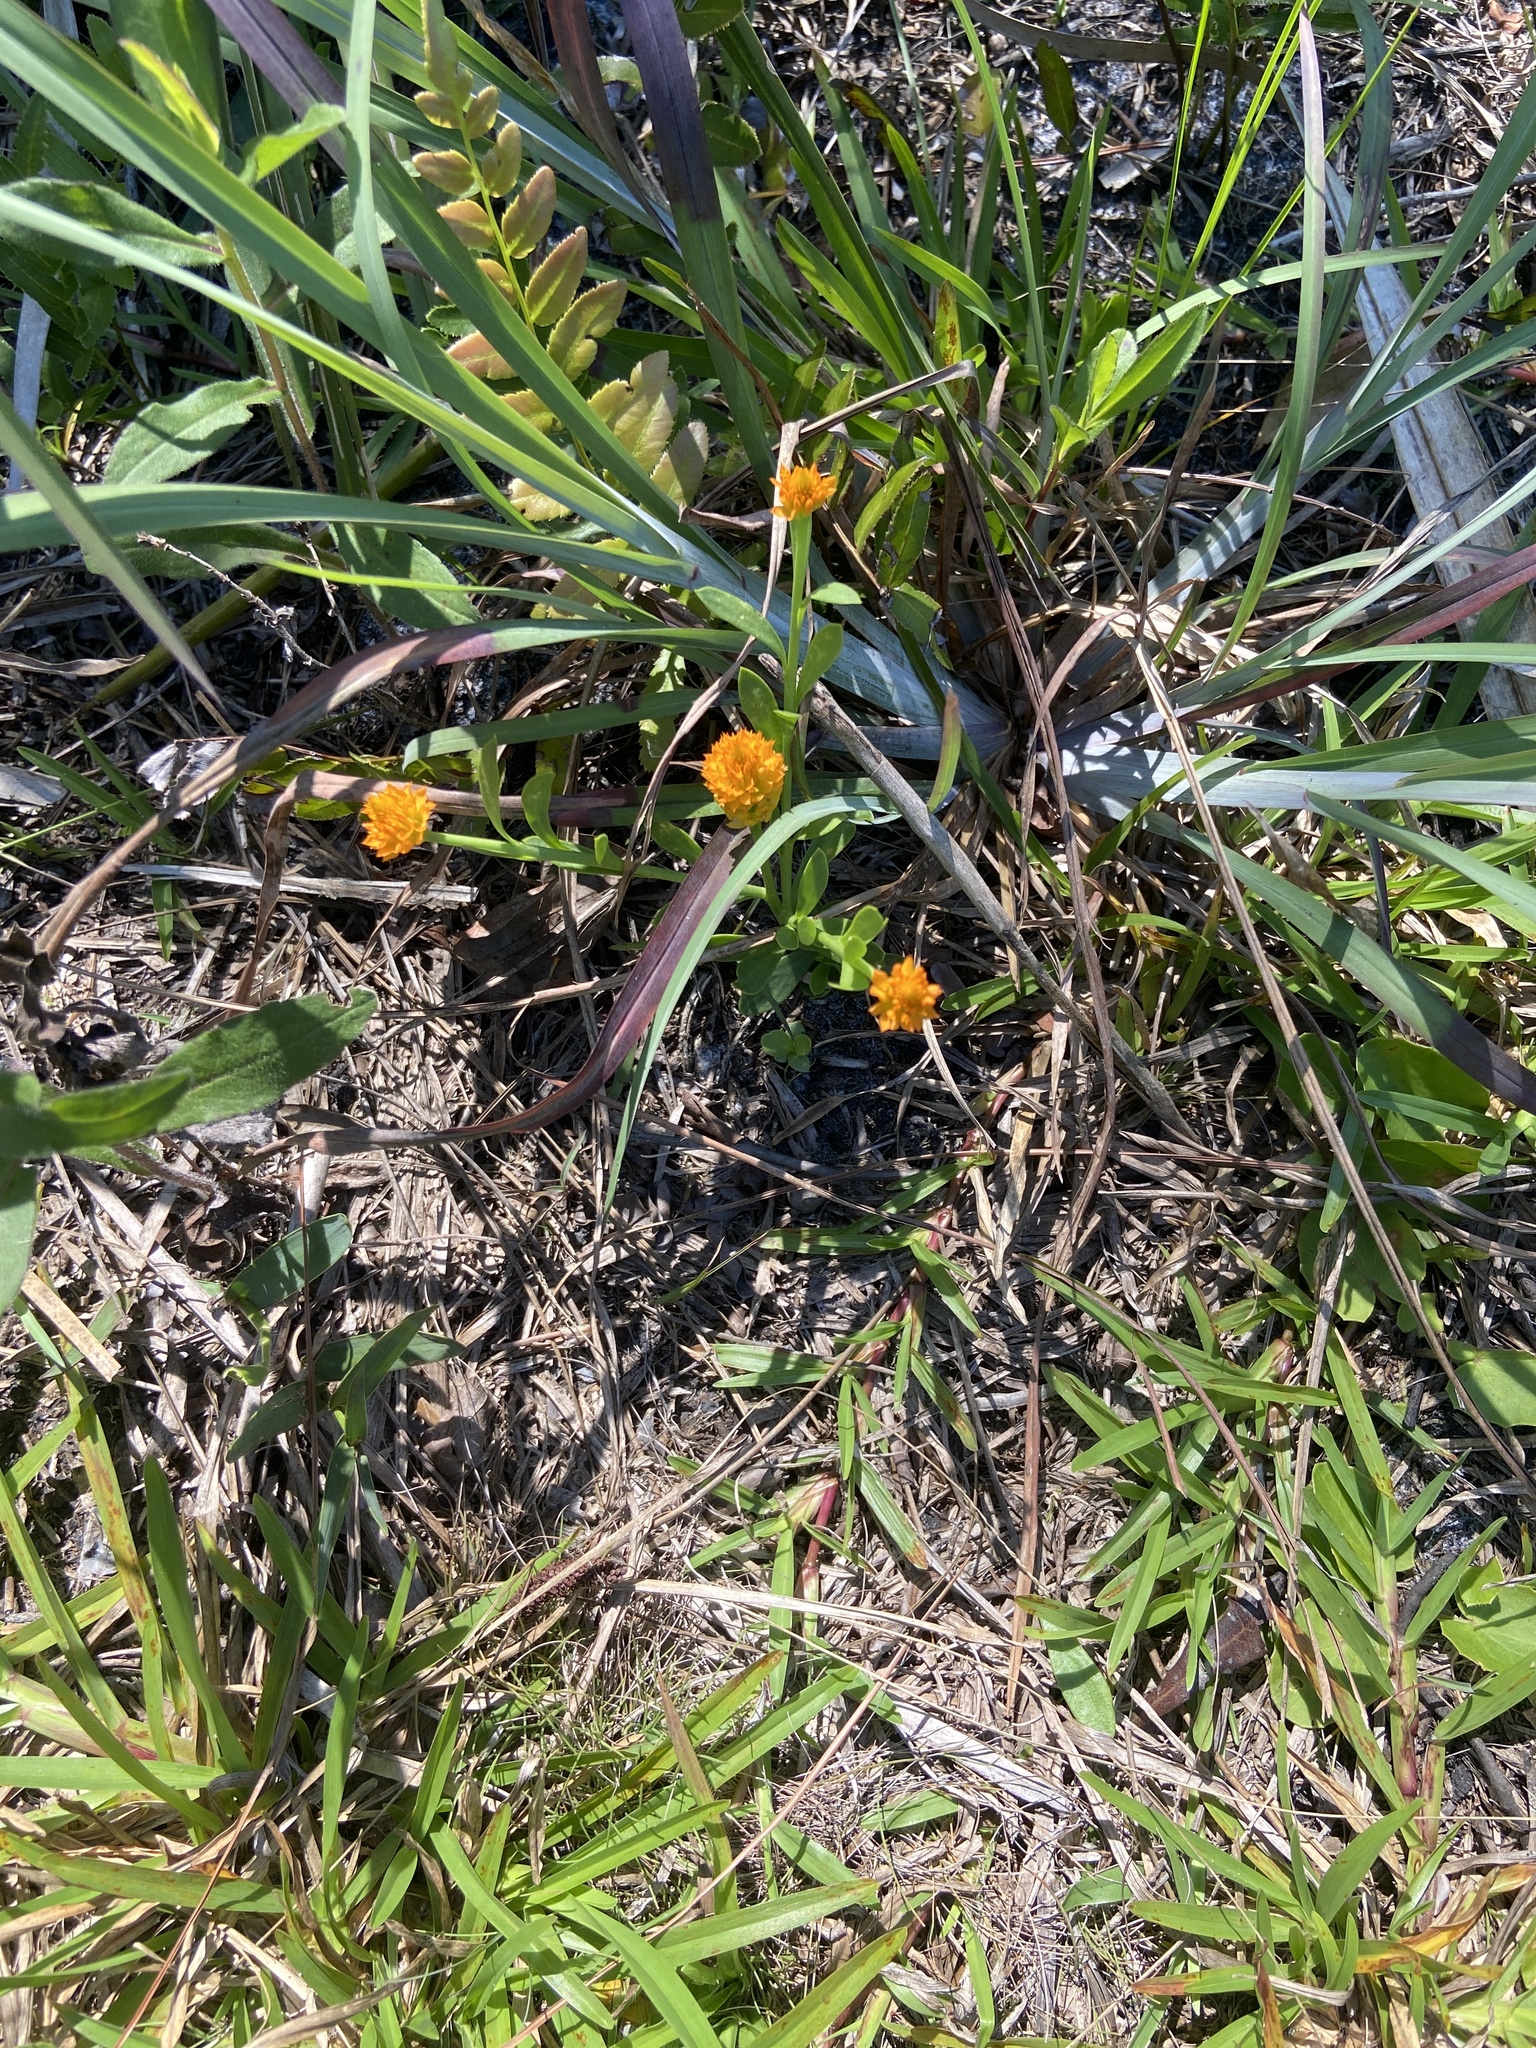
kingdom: Plantae
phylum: Tracheophyta
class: Magnoliopsida
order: Fabales
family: Polygalaceae
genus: Polygala
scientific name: Polygala lutea
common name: Orange milkwort
